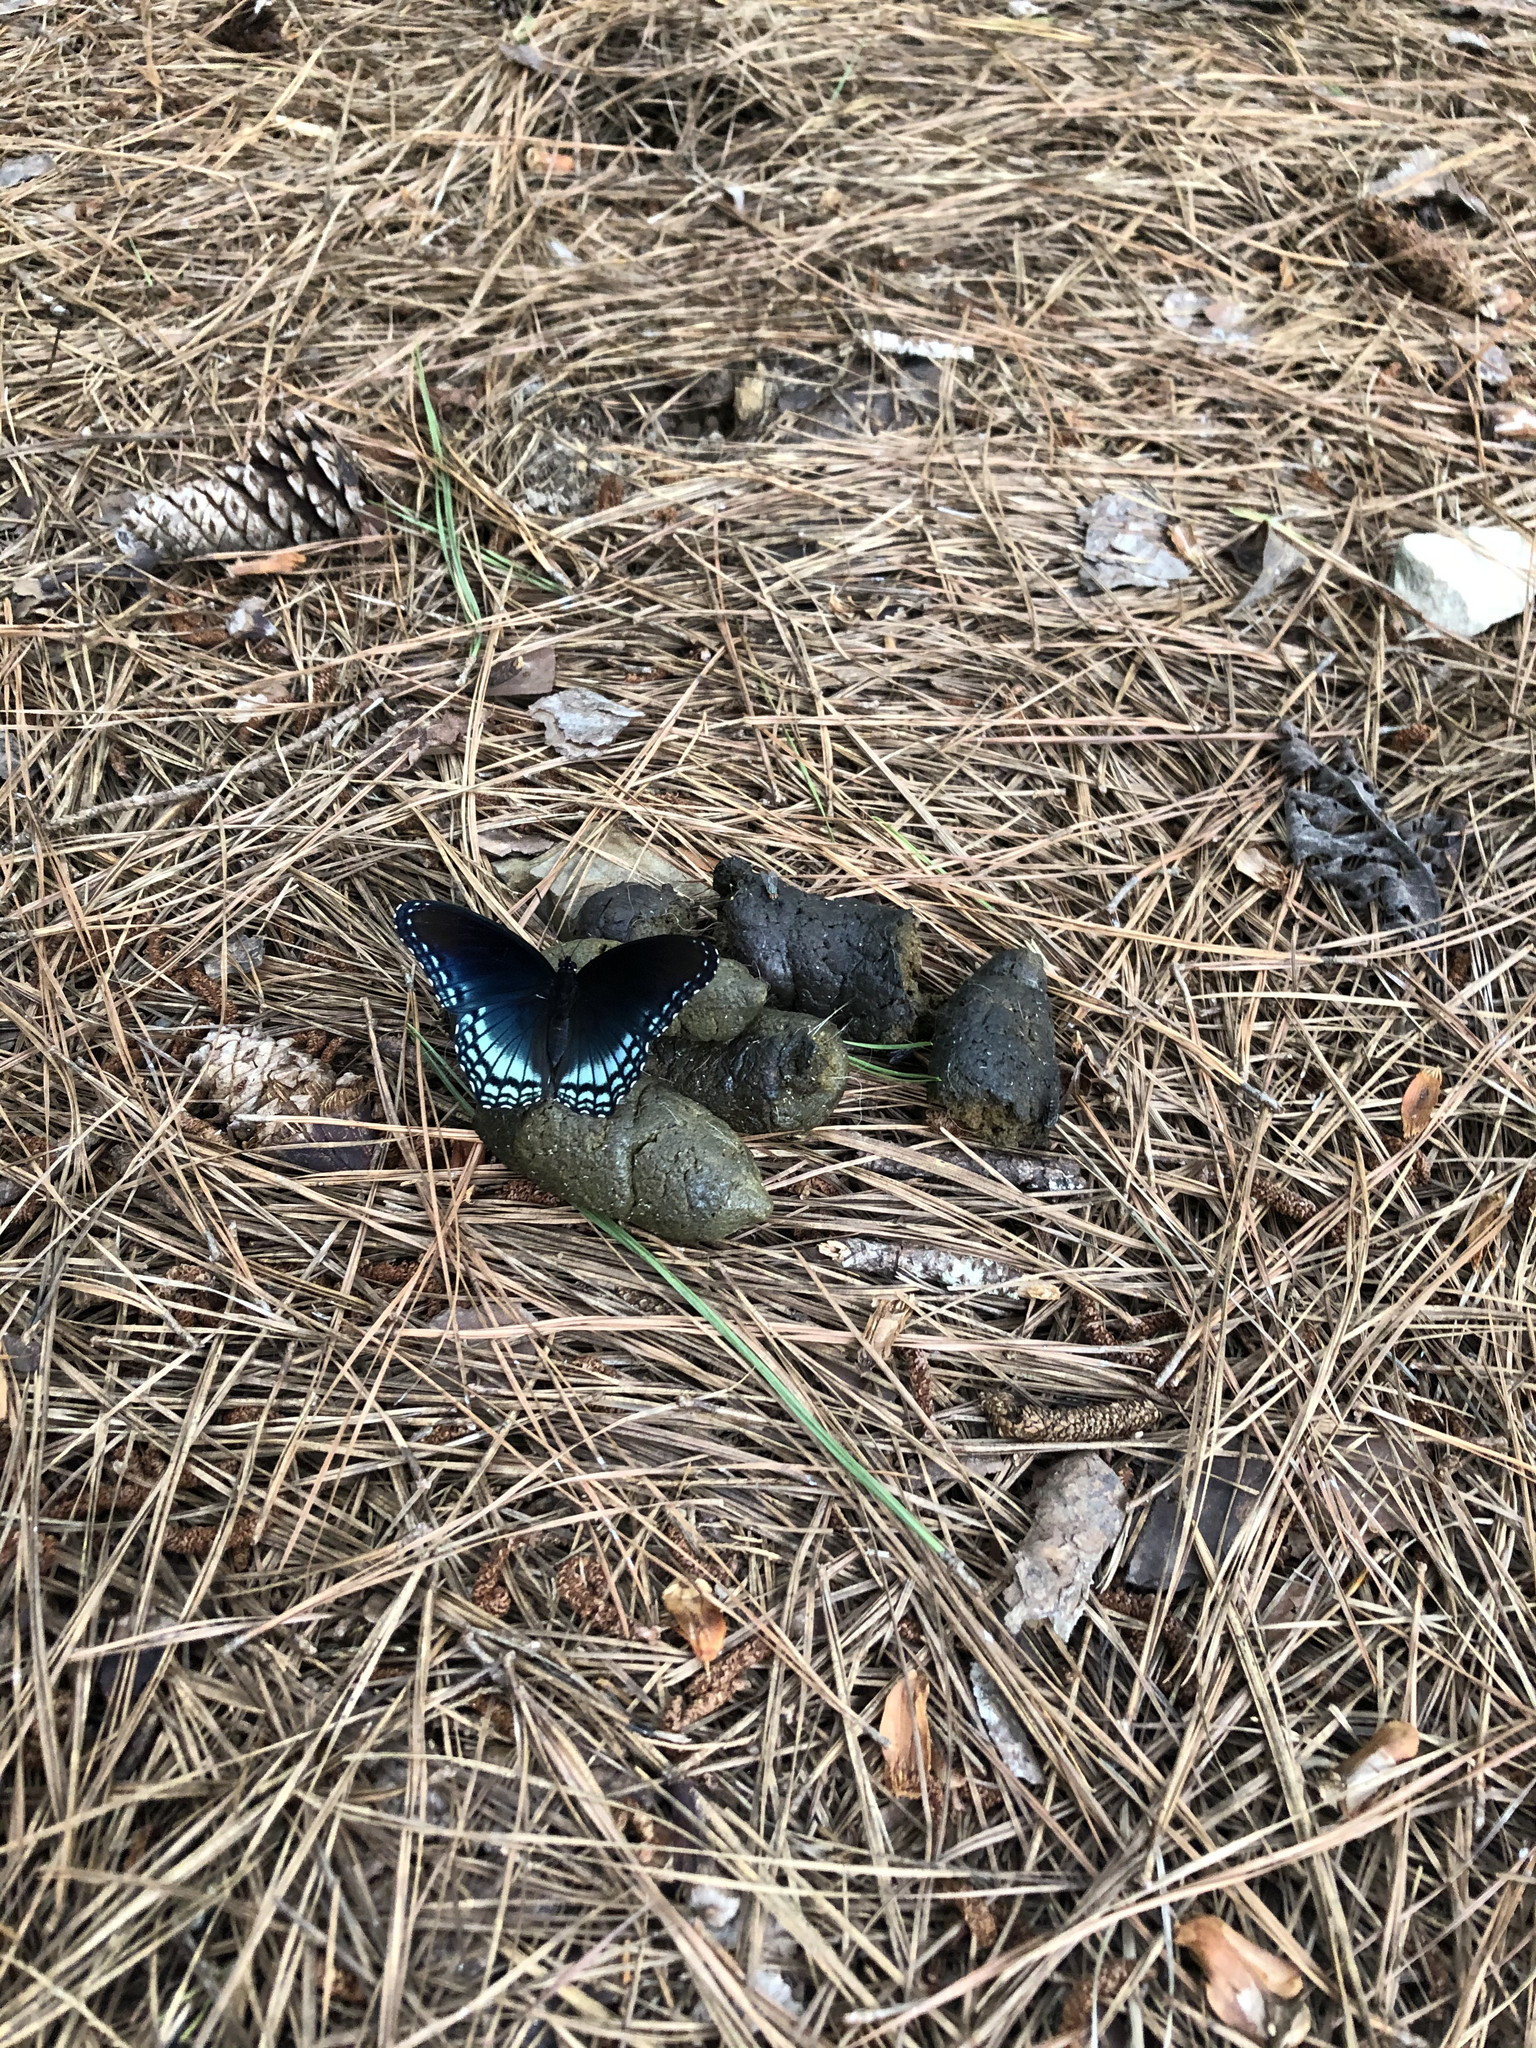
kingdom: Animalia
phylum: Arthropoda
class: Insecta
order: Lepidoptera
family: Nymphalidae
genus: Limenitis
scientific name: Limenitis arthemis
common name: Red-spotted admiral
